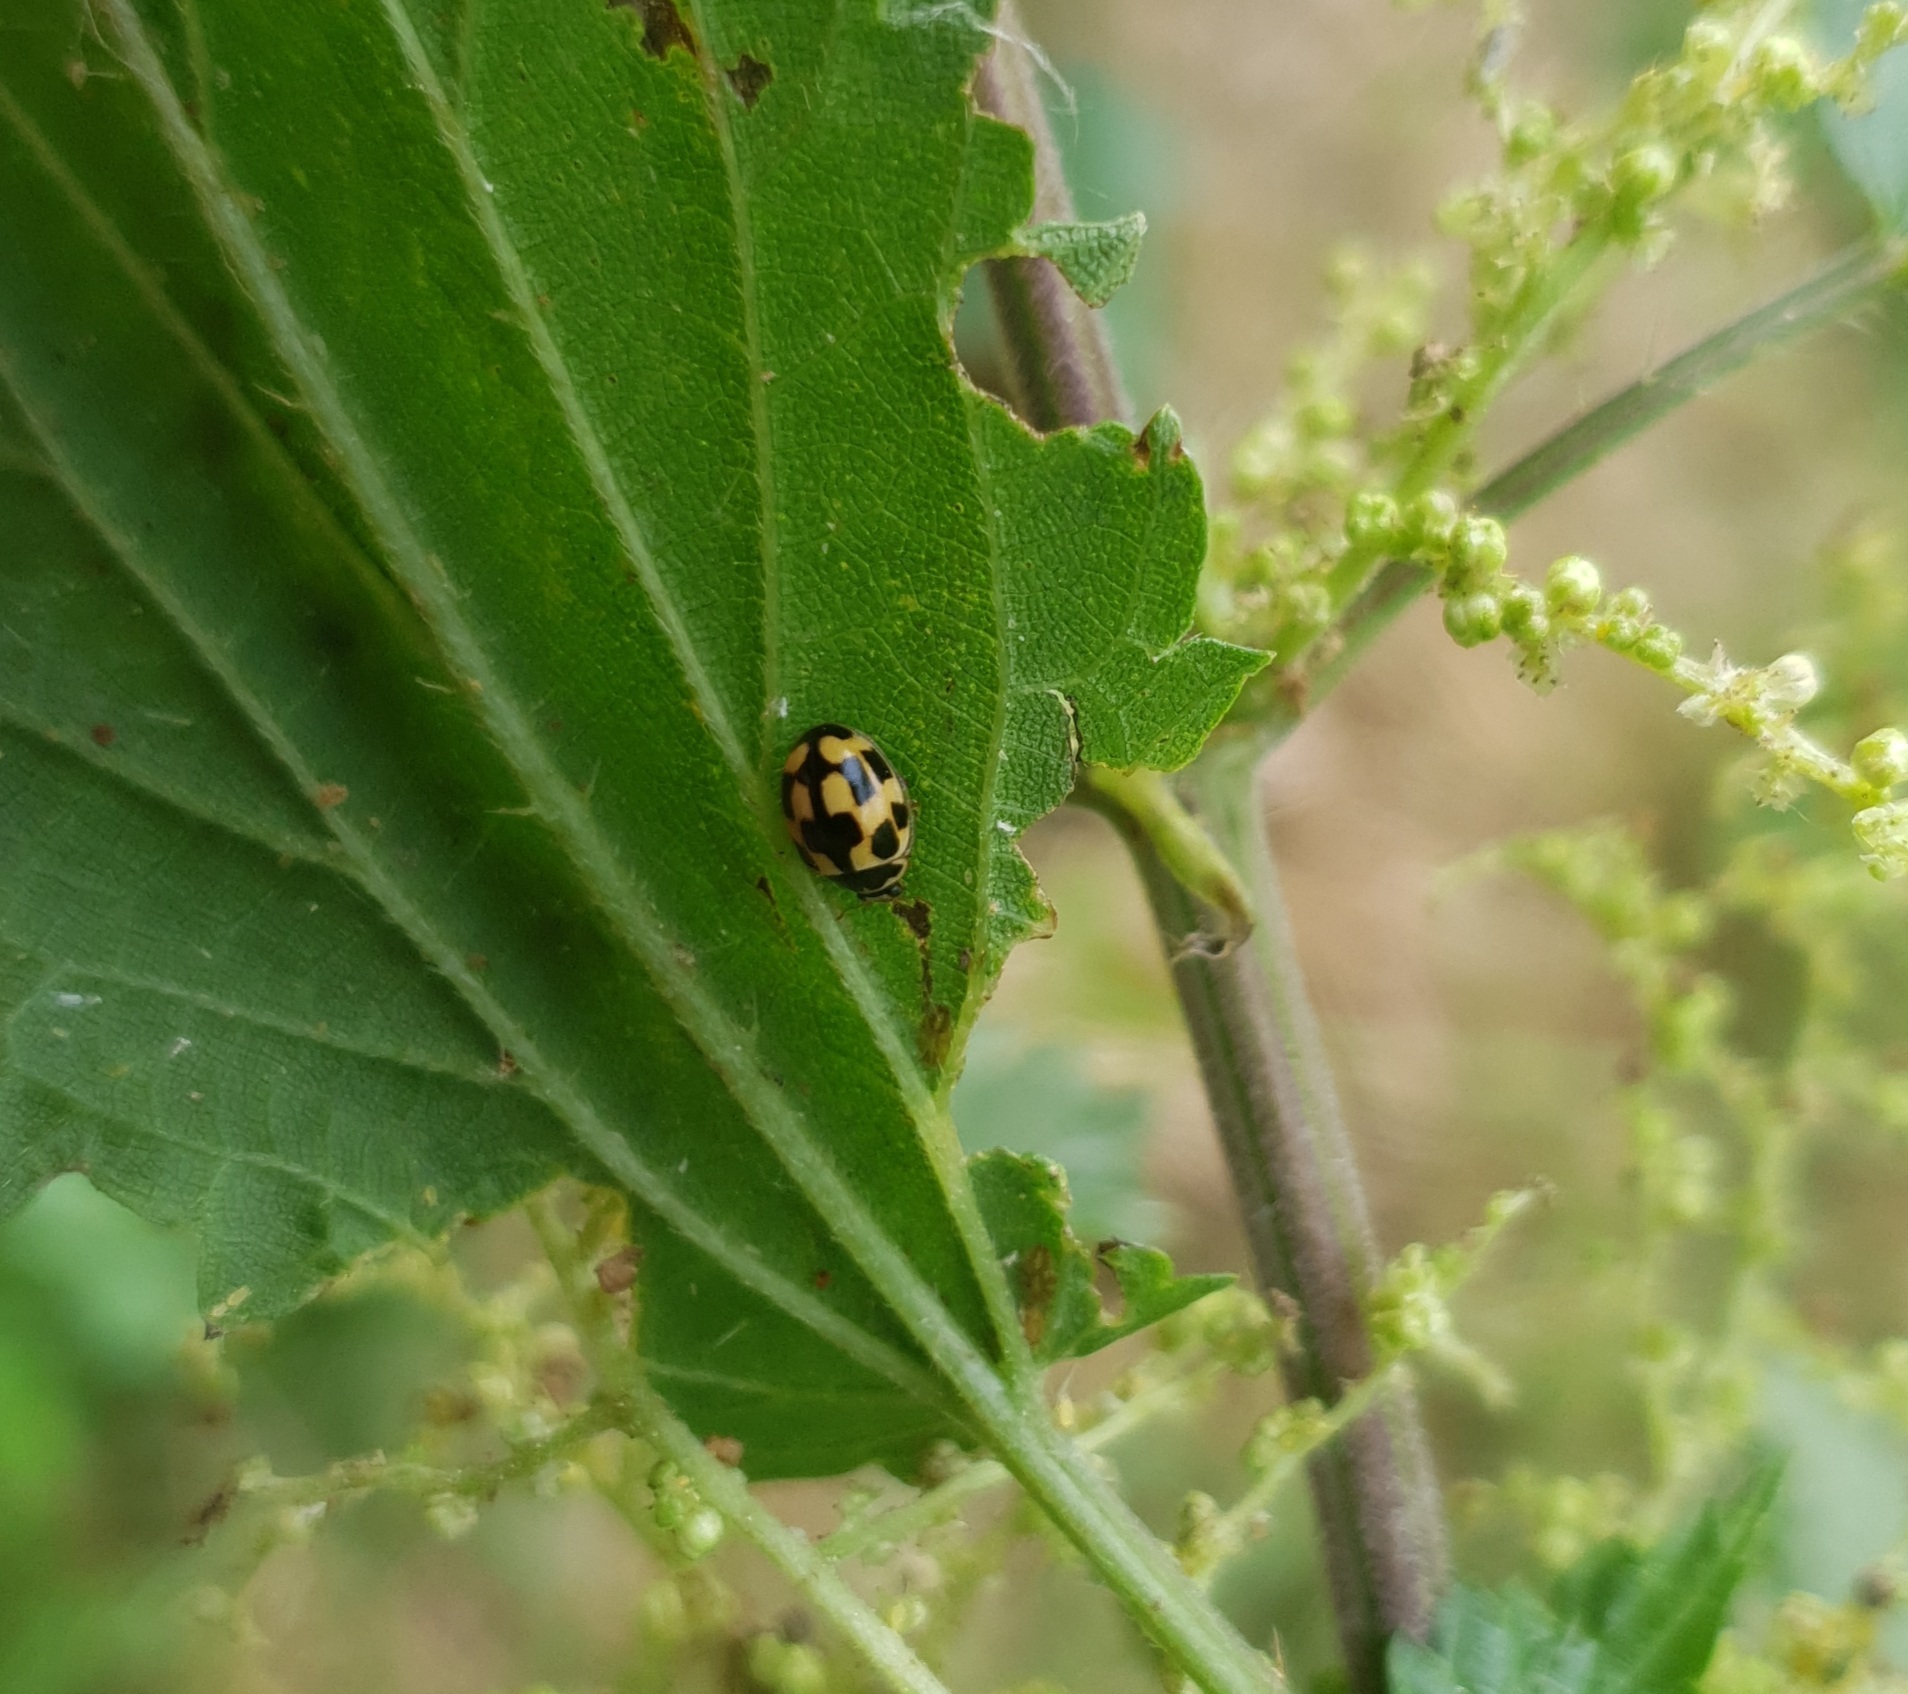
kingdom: Animalia
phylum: Arthropoda
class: Insecta
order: Coleoptera
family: Coccinellidae
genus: Propylaea
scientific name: Propylaea quatuordecimpunctata
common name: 14-spotted ladybird beetle
